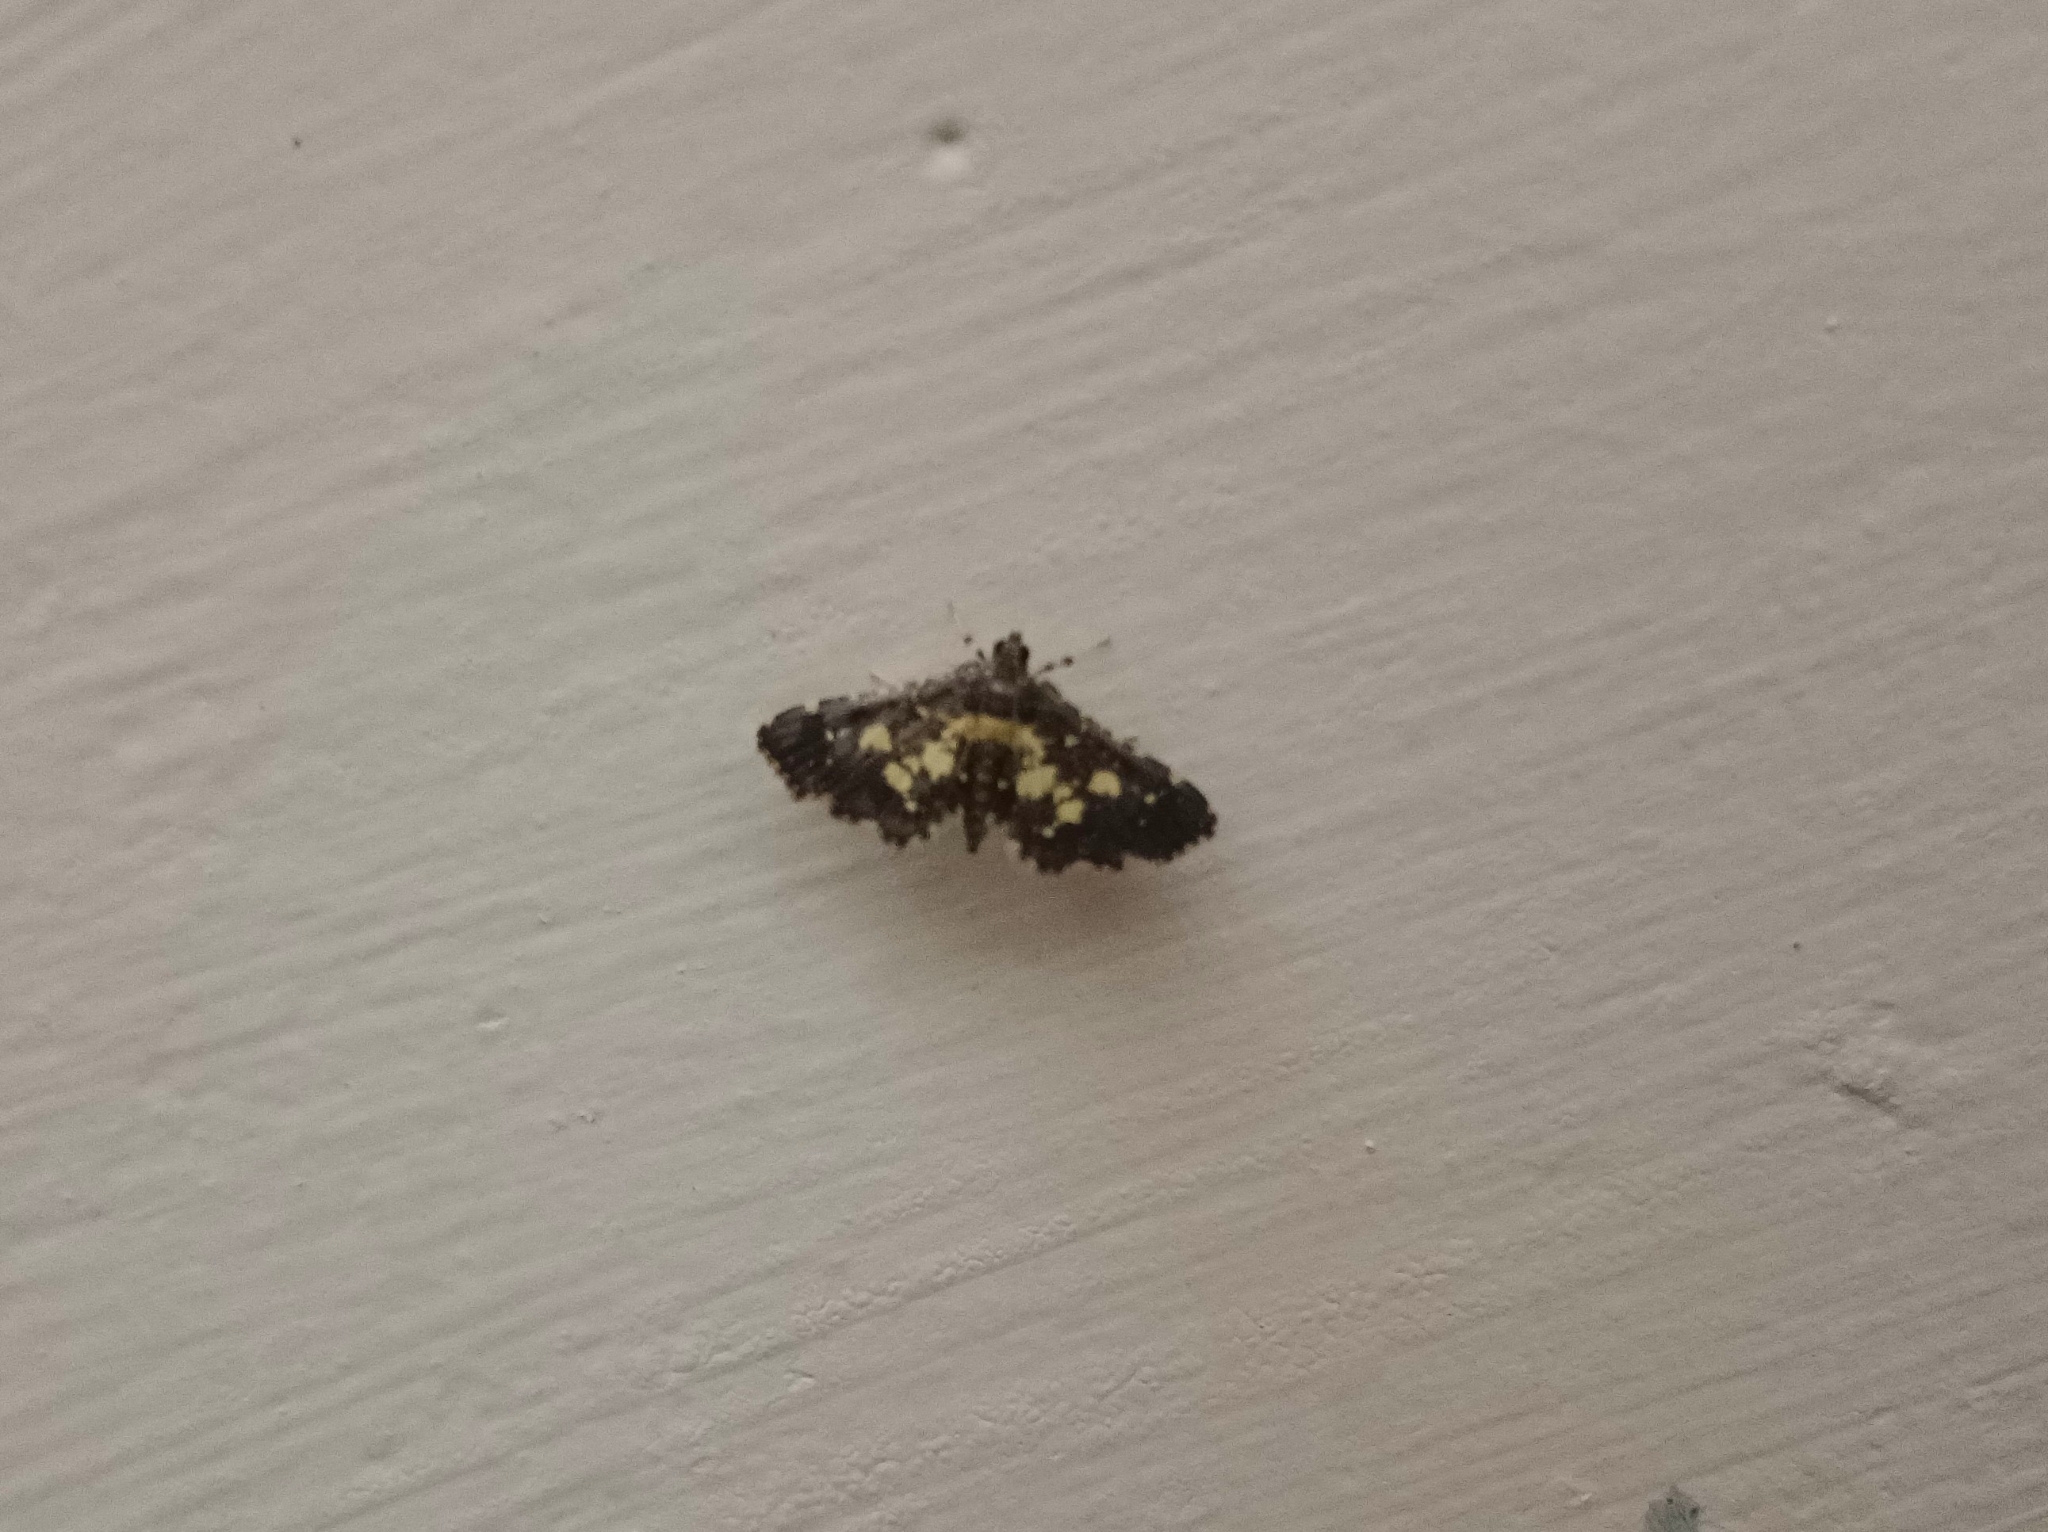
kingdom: Animalia
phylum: Arthropoda
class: Insecta
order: Lepidoptera
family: Crambidae
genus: Eurrhyparodes
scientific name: Eurrhyparodes bracteolalis
